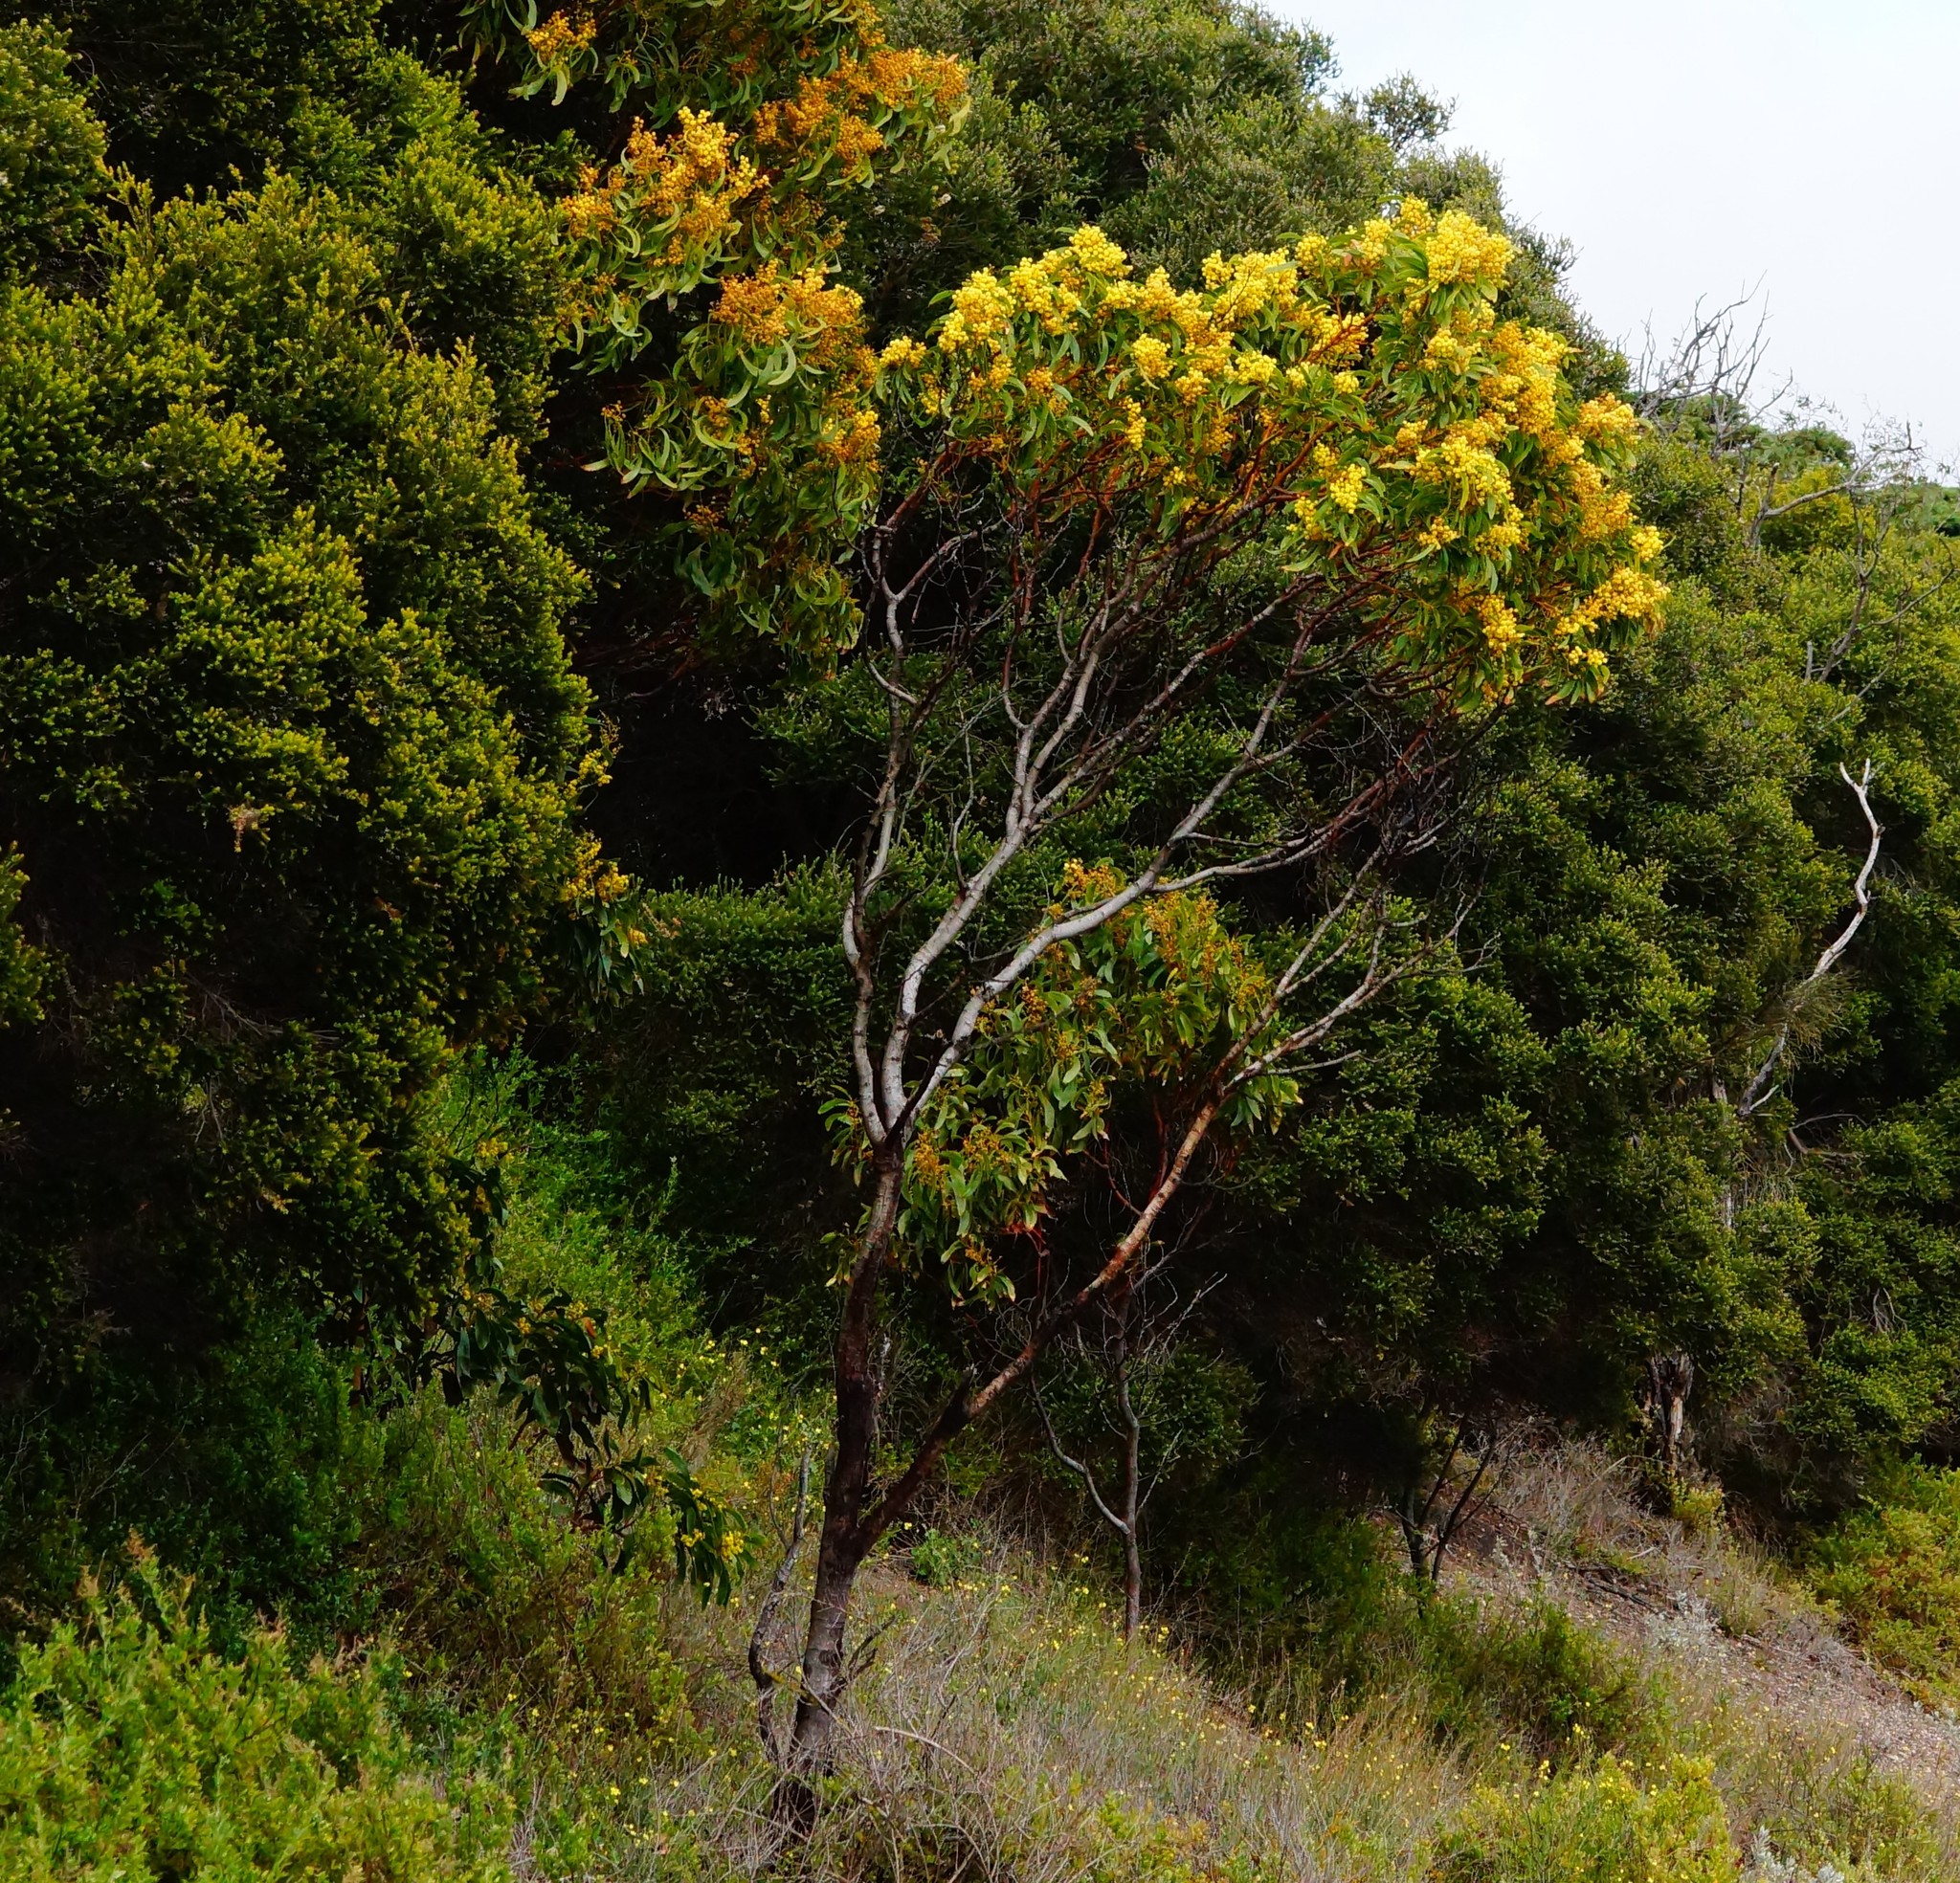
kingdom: Plantae
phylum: Tracheophyta
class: Magnoliopsida
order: Fabales
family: Fabaceae
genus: Acacia
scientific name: Acacia pycnantha
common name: Golden wattle
